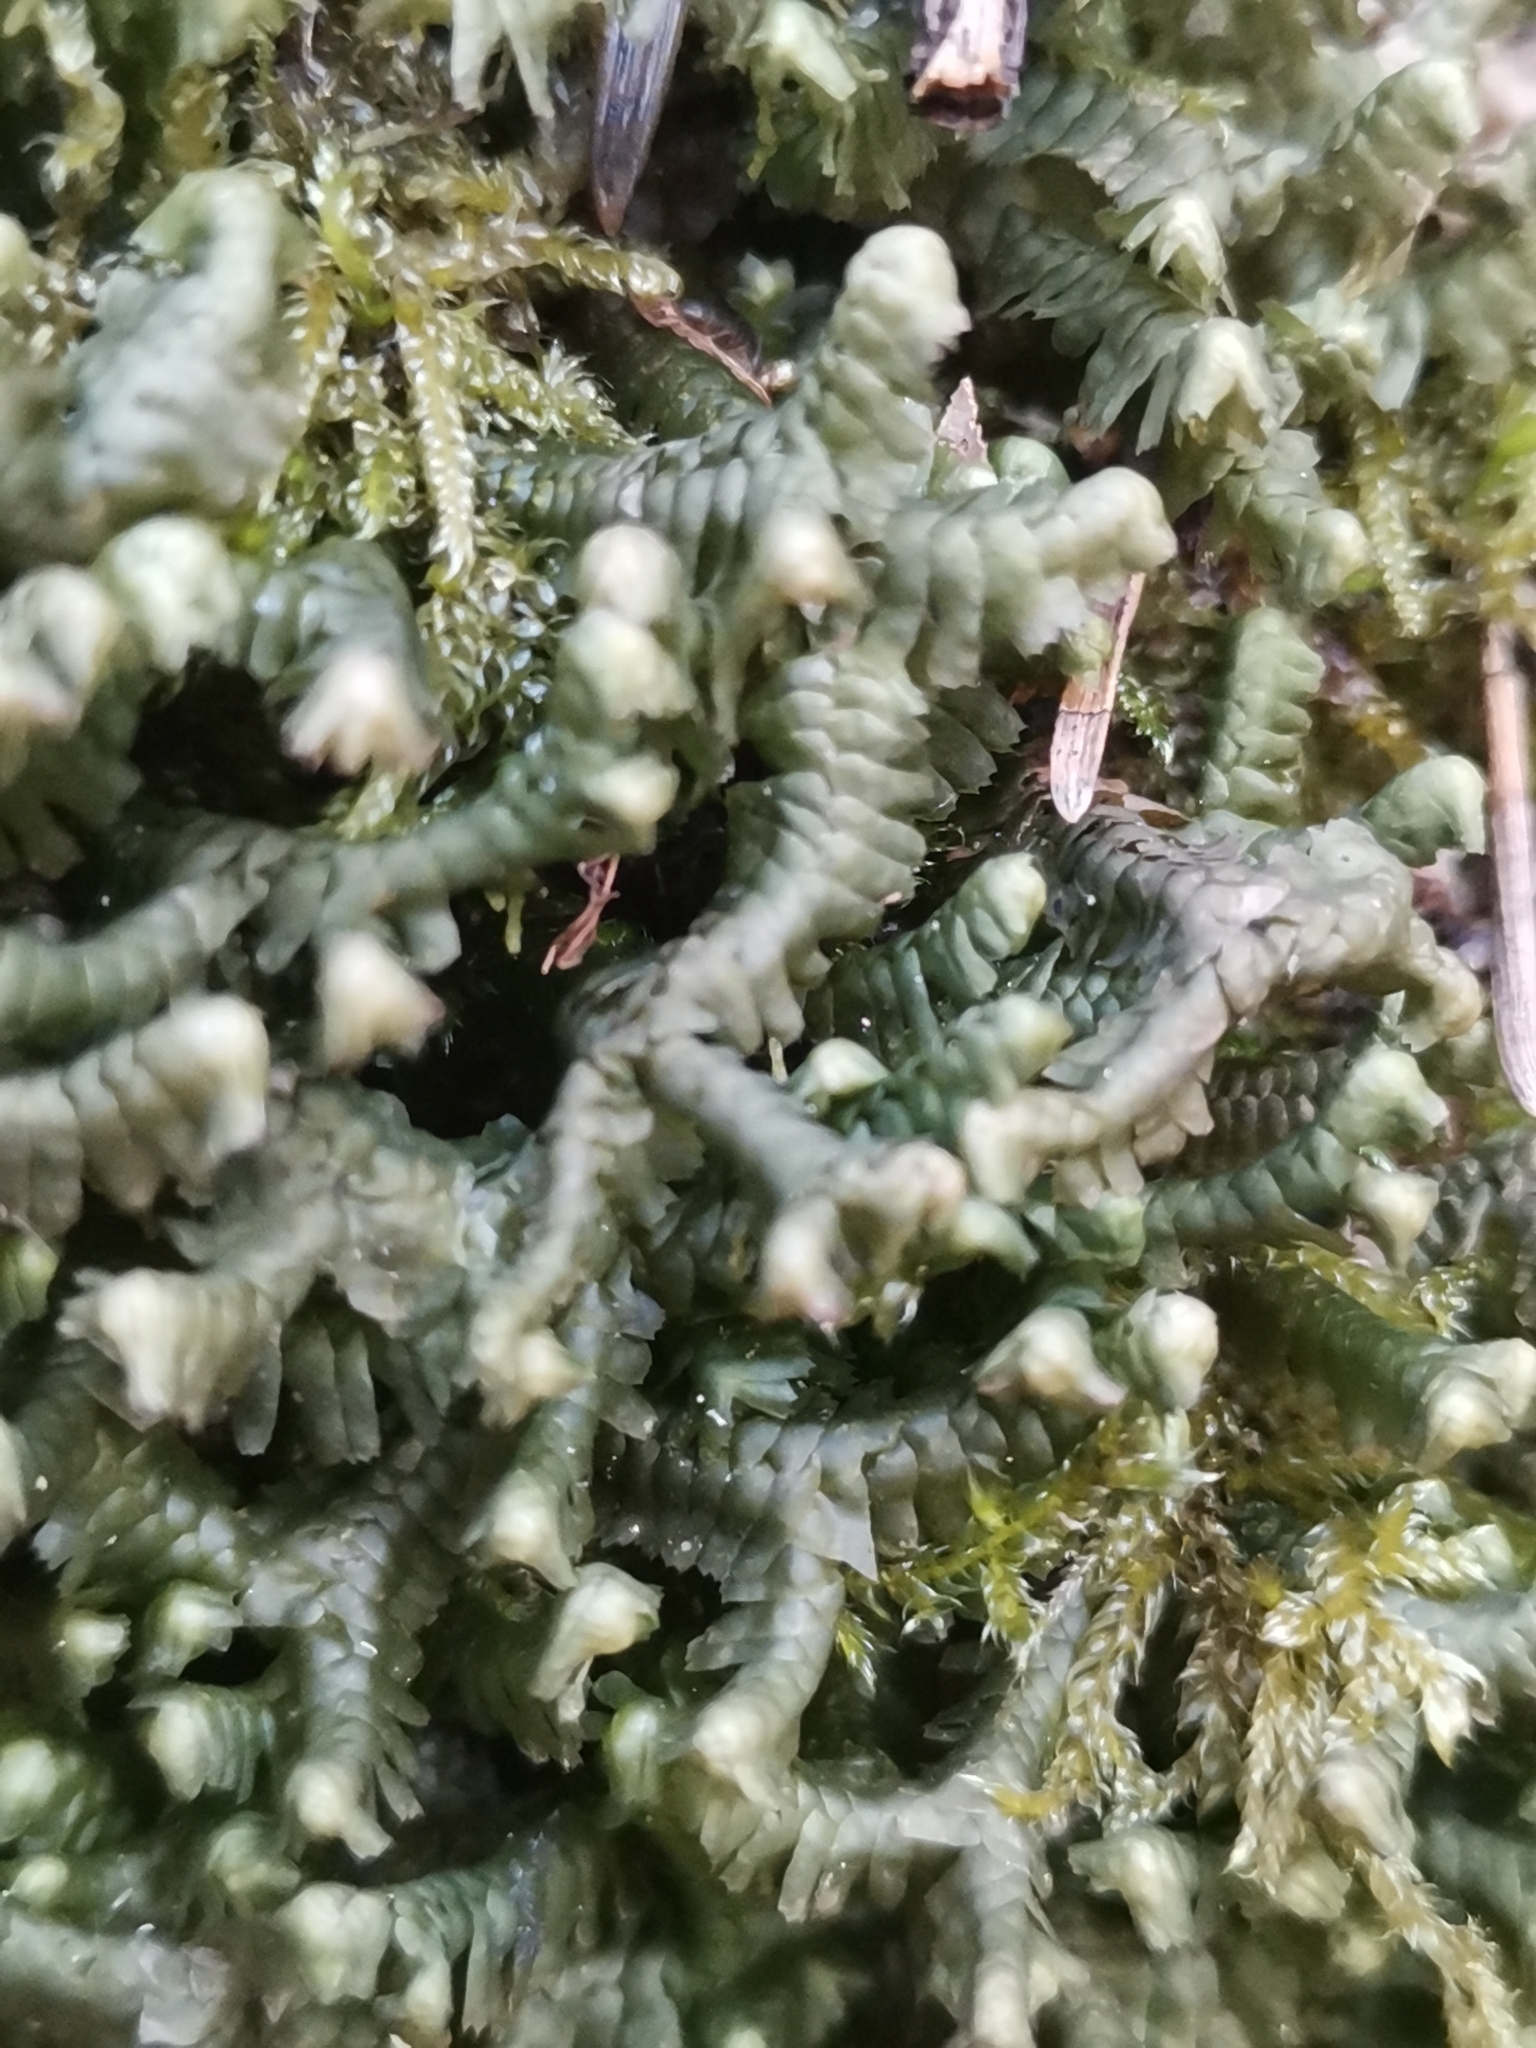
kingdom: Plantae
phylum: Marchantiophyta
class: Jungermanniopsida
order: Jungermanniales
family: Lepidoziaceae
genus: Bazzania
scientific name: Bazzania trilobata
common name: Three-lobed whipwort
